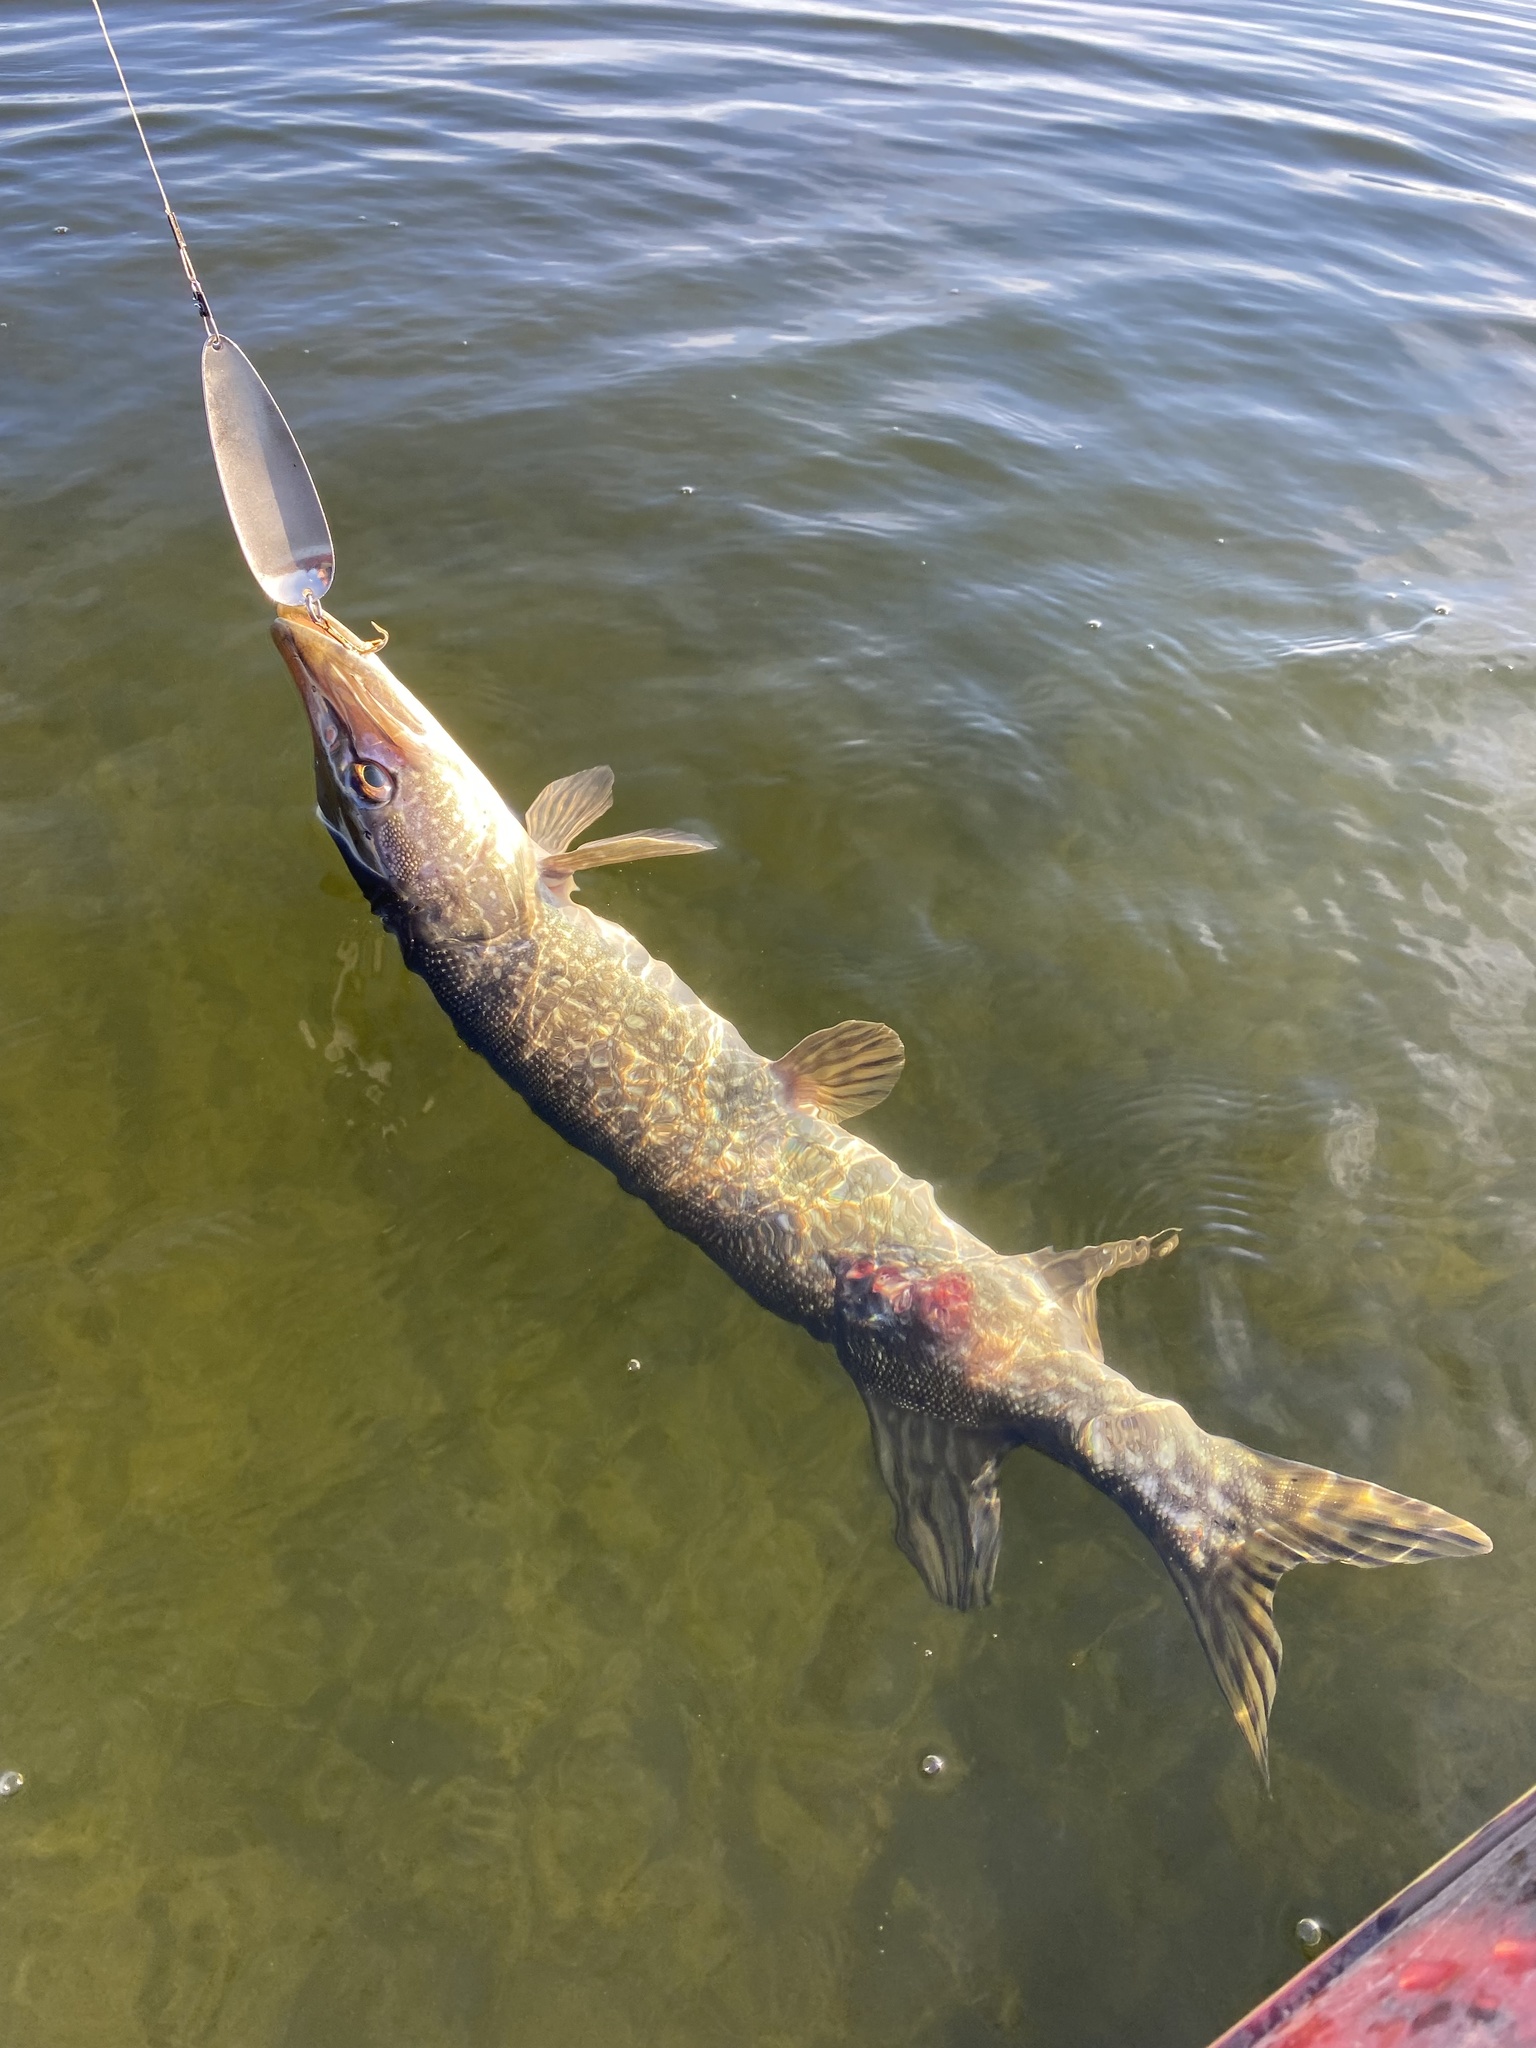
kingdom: Animalia
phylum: Chordata
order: Esociformes
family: Esocidae
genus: Esox
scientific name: Esox lucius
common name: Northern pike
